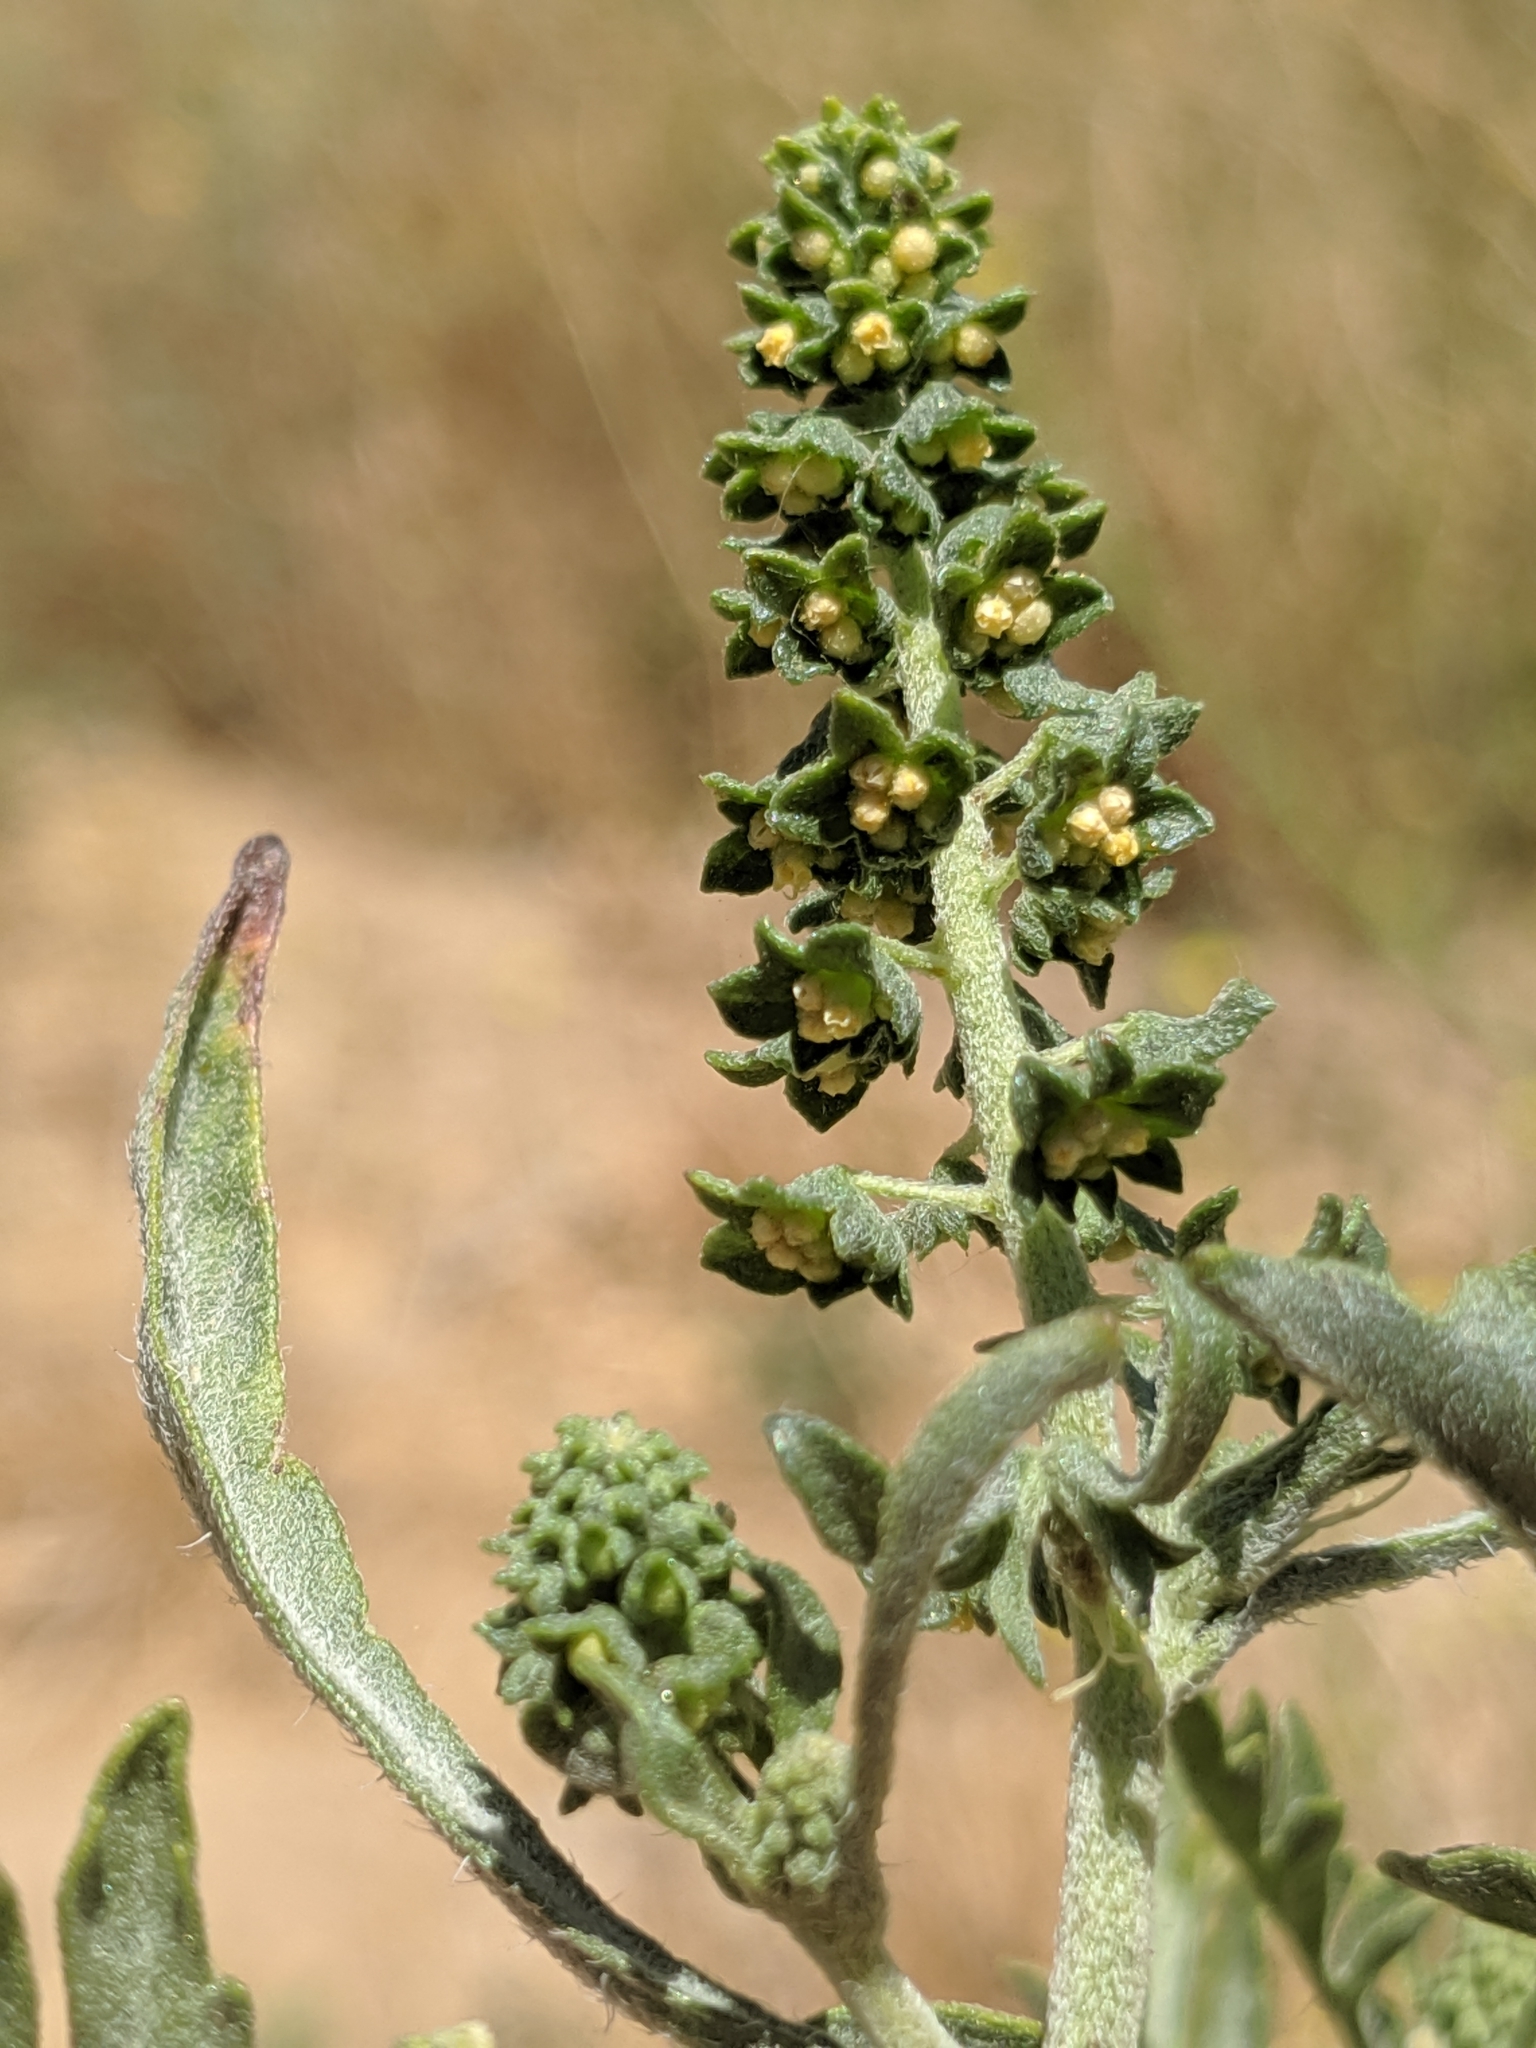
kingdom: Plantae
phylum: Tracheophyta
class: Magnoliopsida
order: Asterales
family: Asteraceae
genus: Ambrosia
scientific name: Ambrosia acanthicarpa
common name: Hooker's bur ragweed
